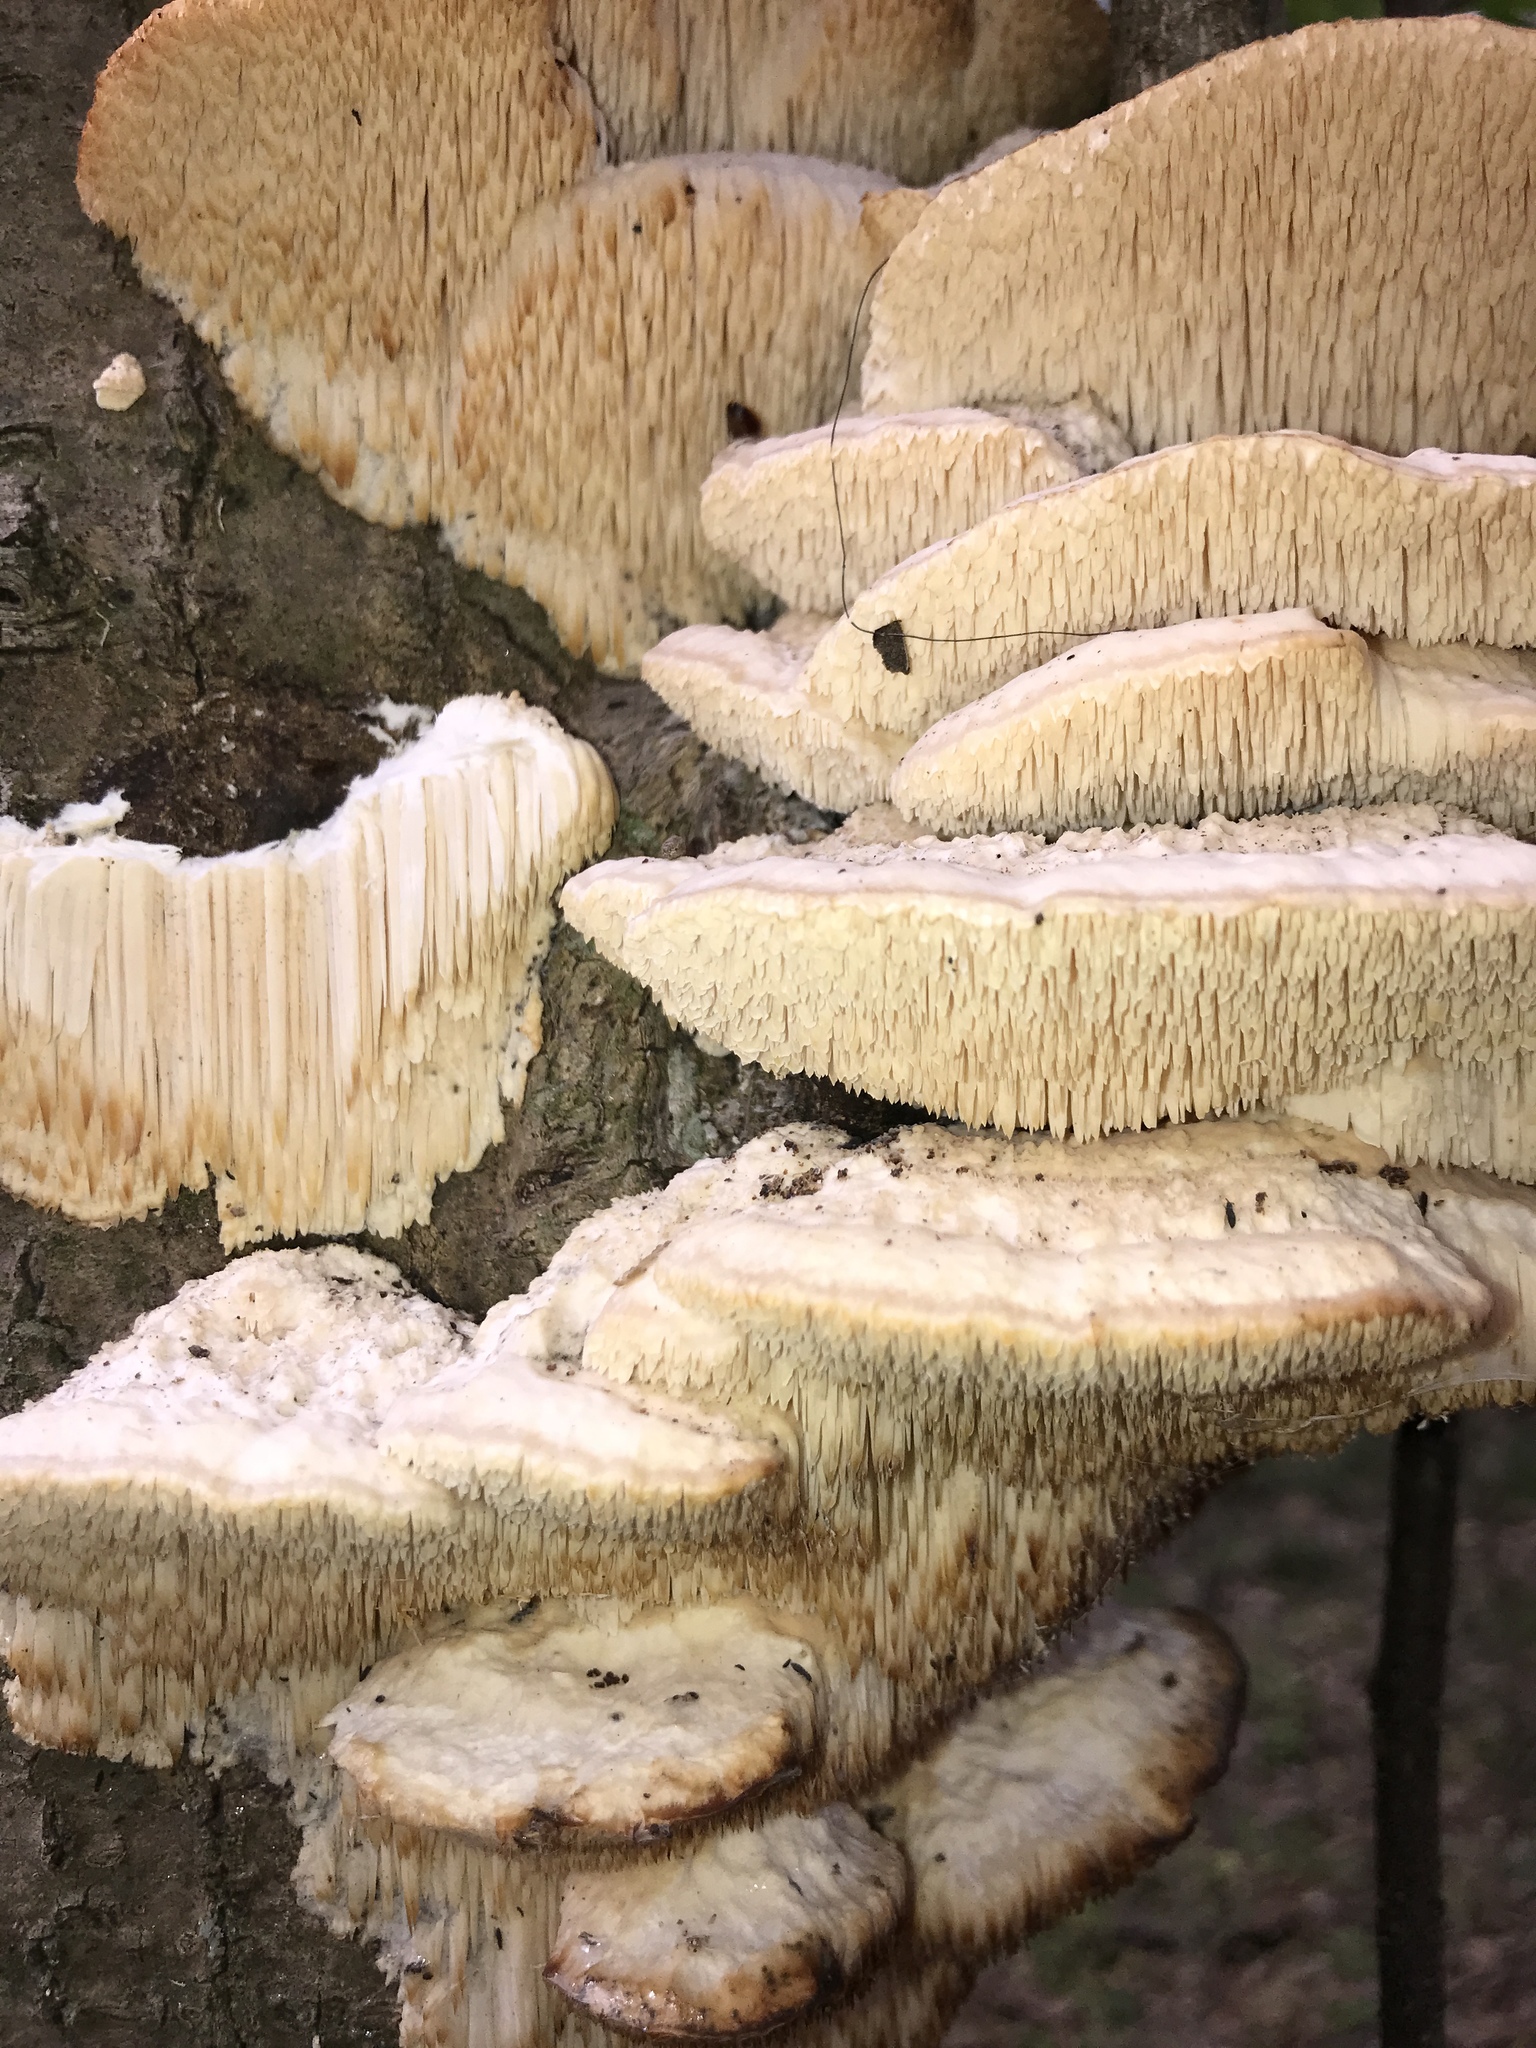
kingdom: Fungi
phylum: Basidiomycota
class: Agaricomycetes
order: Polyporales
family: Meruliaceae
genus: Irpiciporus
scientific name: Irpiciporus pachyodon
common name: Marshmallow polypore
